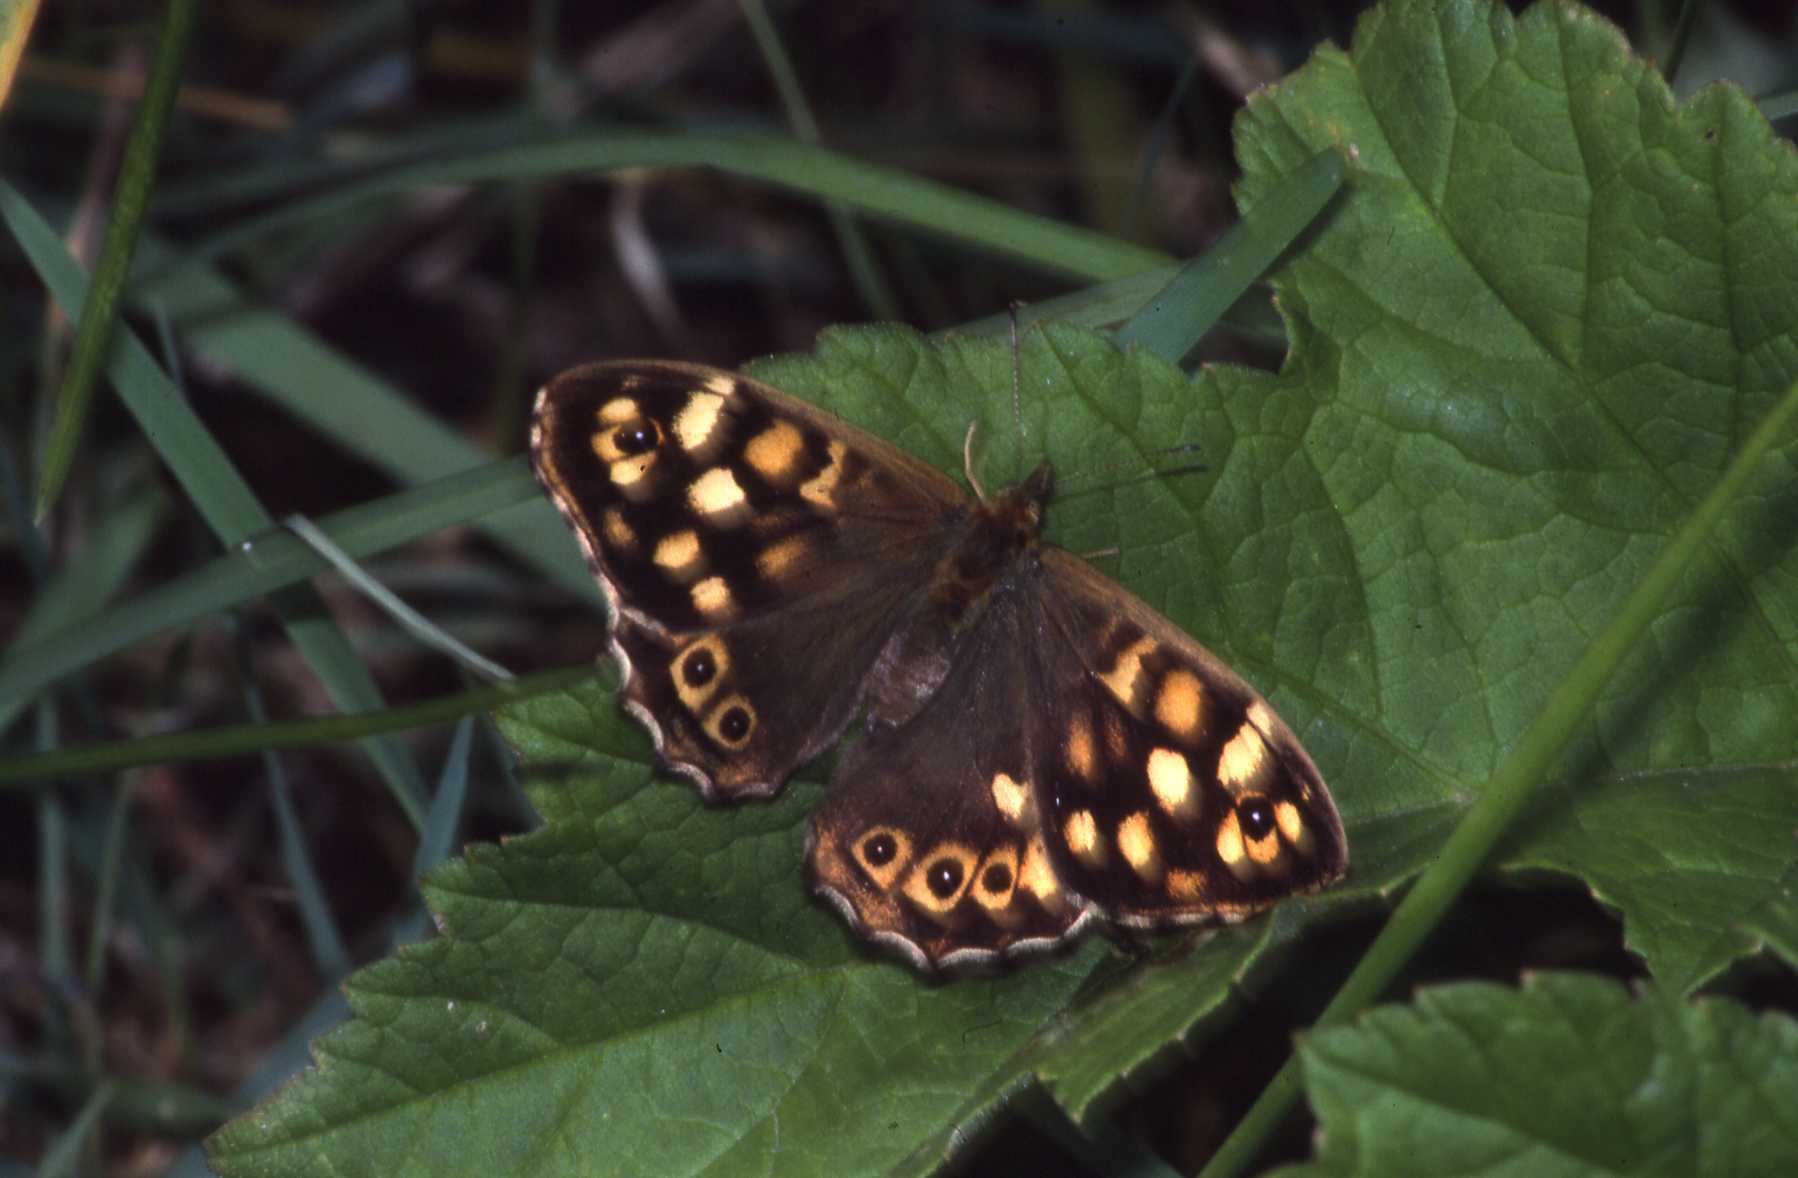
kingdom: Animalia
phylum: Arthropoda
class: Insecta
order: Lepidoptera
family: Nymphalidae
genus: Pararge
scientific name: Pararge aegeria
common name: Speckled wood
